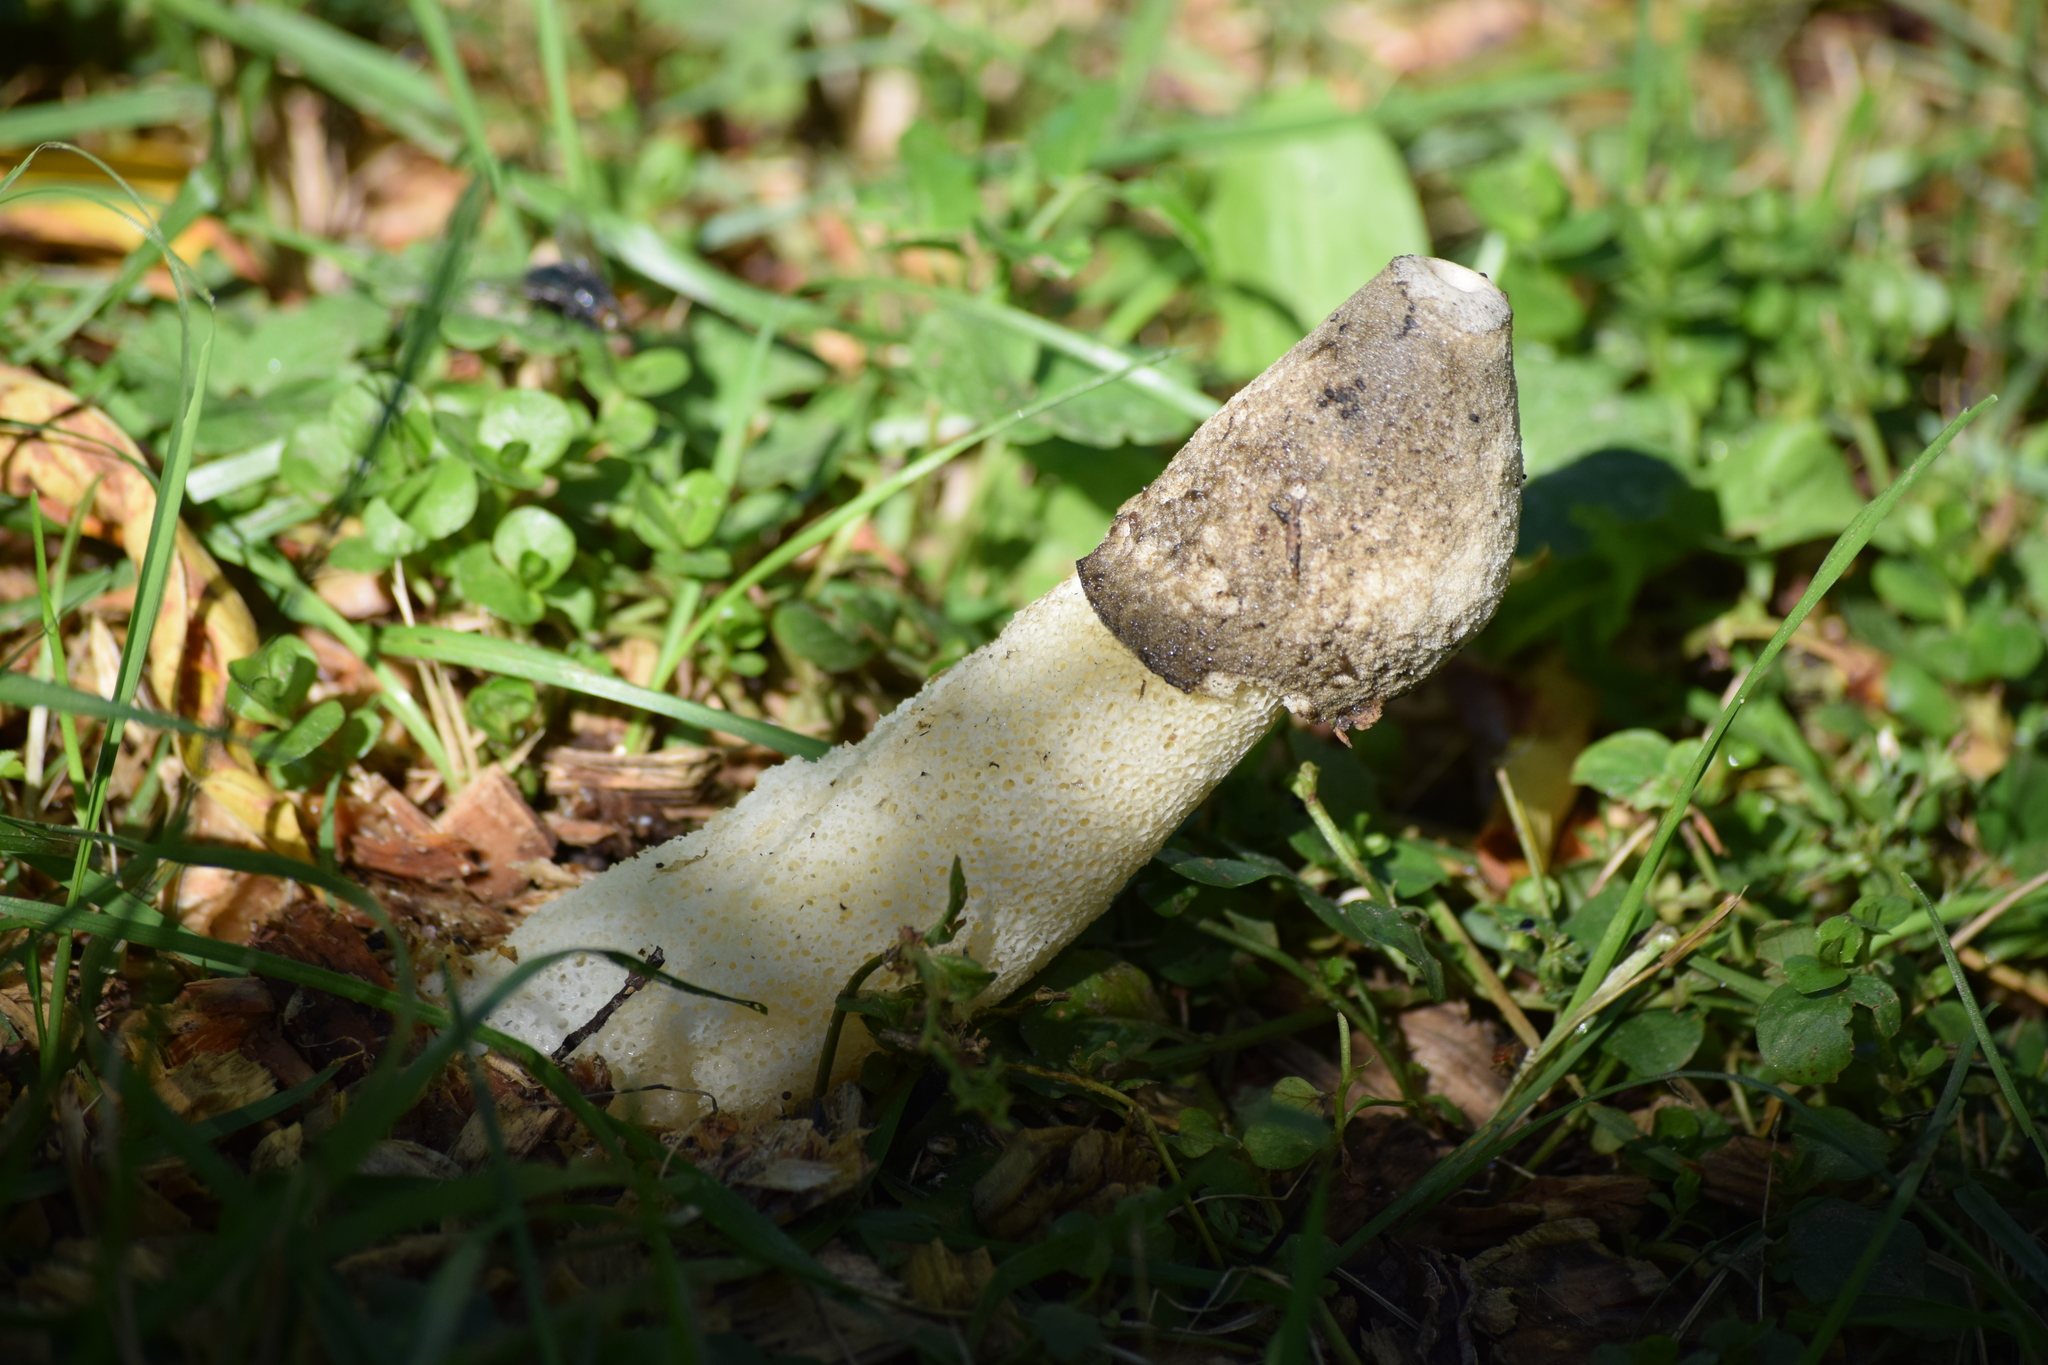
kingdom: Fungi
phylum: Basidiomycota
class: Agaricomycetes
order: Phallales
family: Phallaceae
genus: Phallus
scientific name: Phallus ravenelii
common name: Ravenel's stinkhorn
